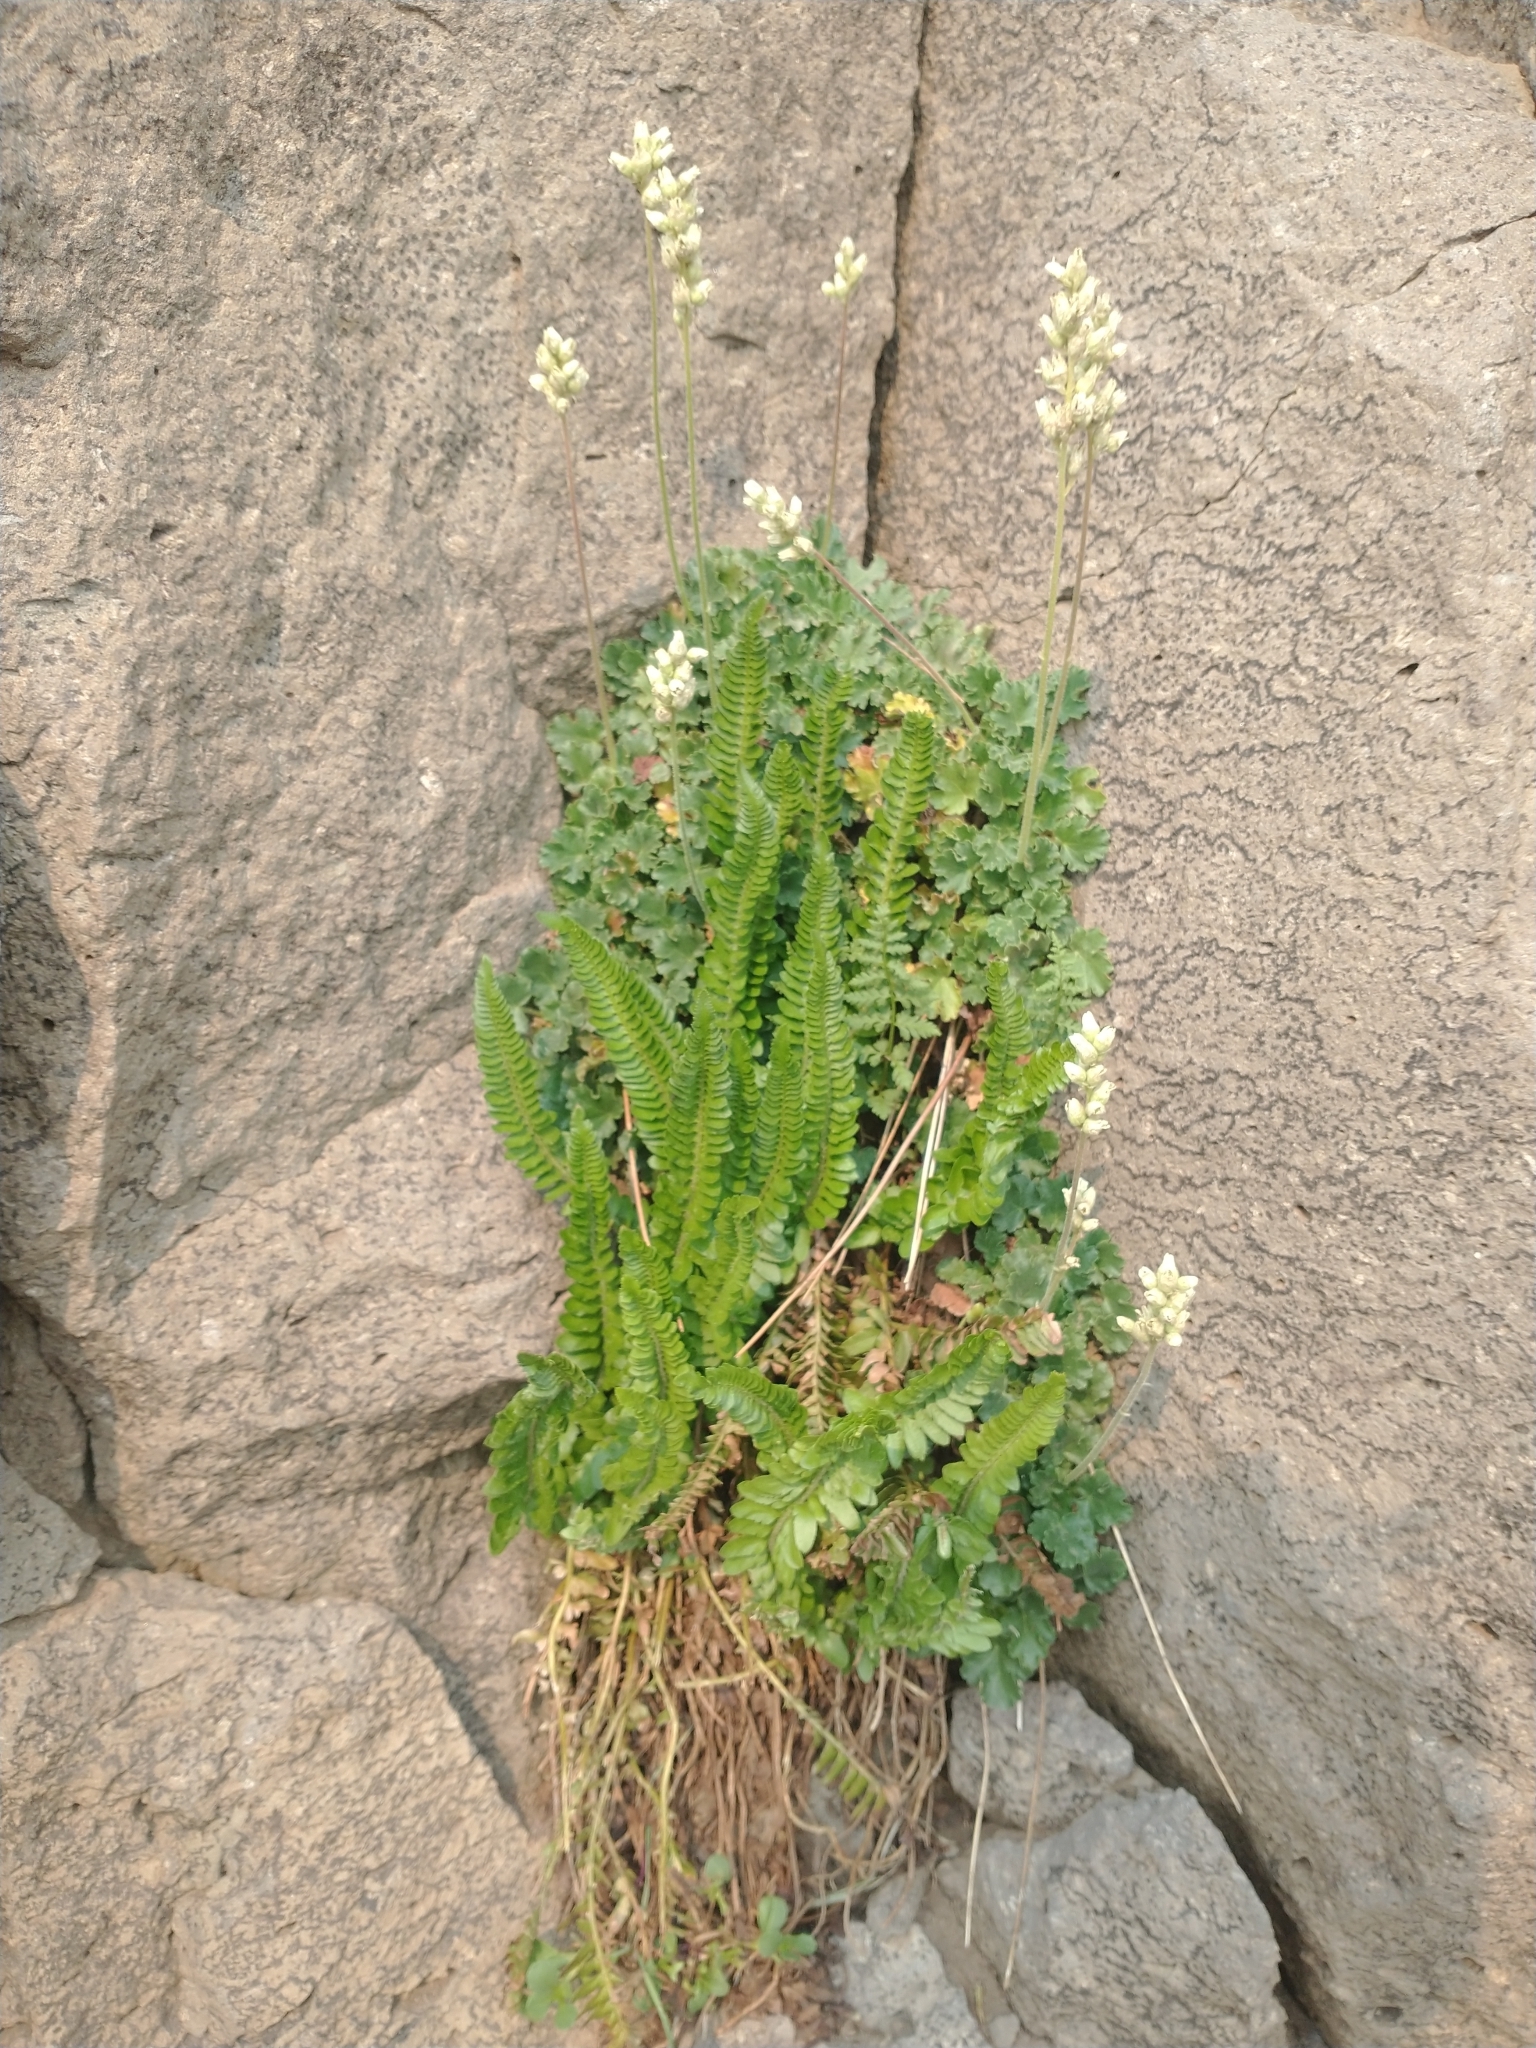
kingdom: Plantae
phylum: Tracheophyta
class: Magnoliopsida
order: Saxifragales
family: Saxifragaceae
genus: Heuchera
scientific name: Heuchera cylindrica
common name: Mat alumroot
